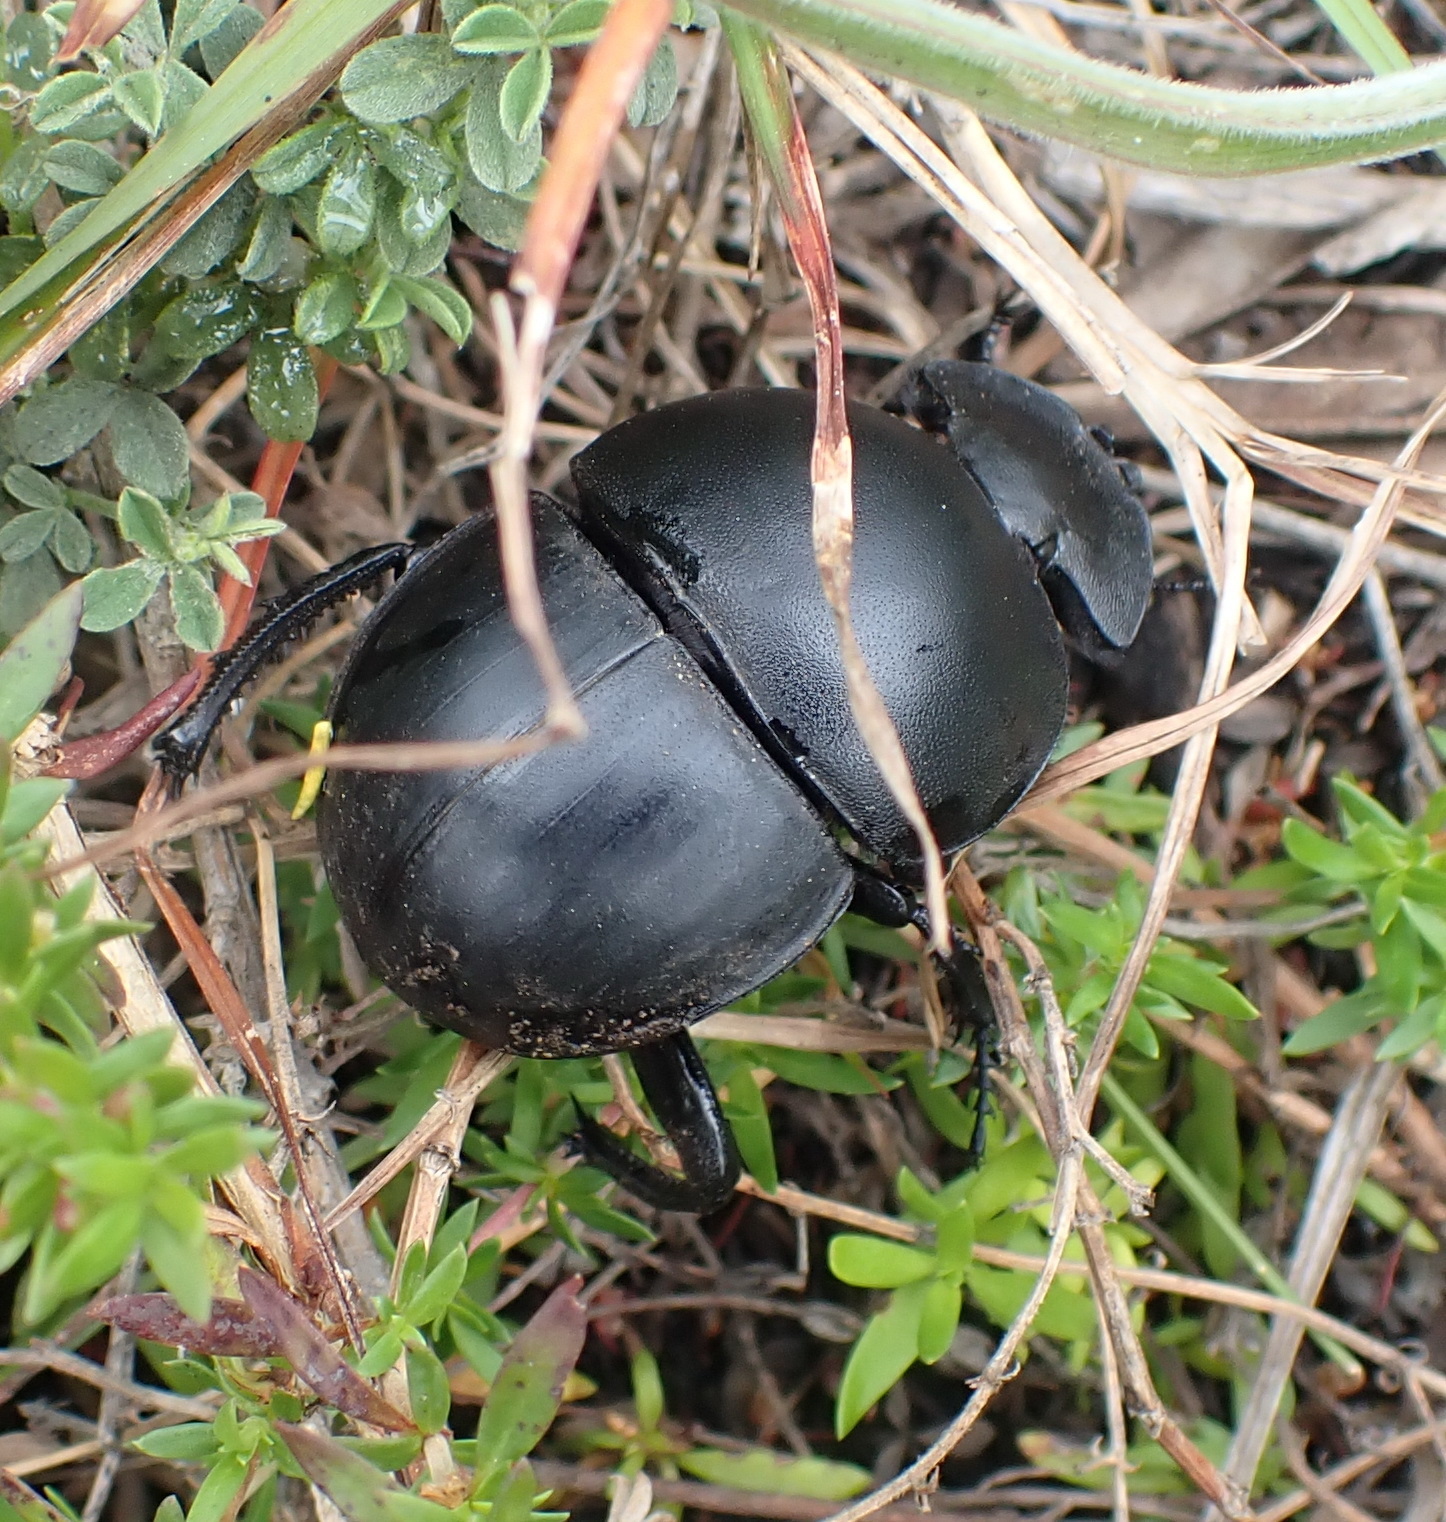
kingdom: Animalia
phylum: Arthropoda
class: Insecta
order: Coleoptera
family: Scarabaeidae
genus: Circellium
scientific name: Circellium bacchus
